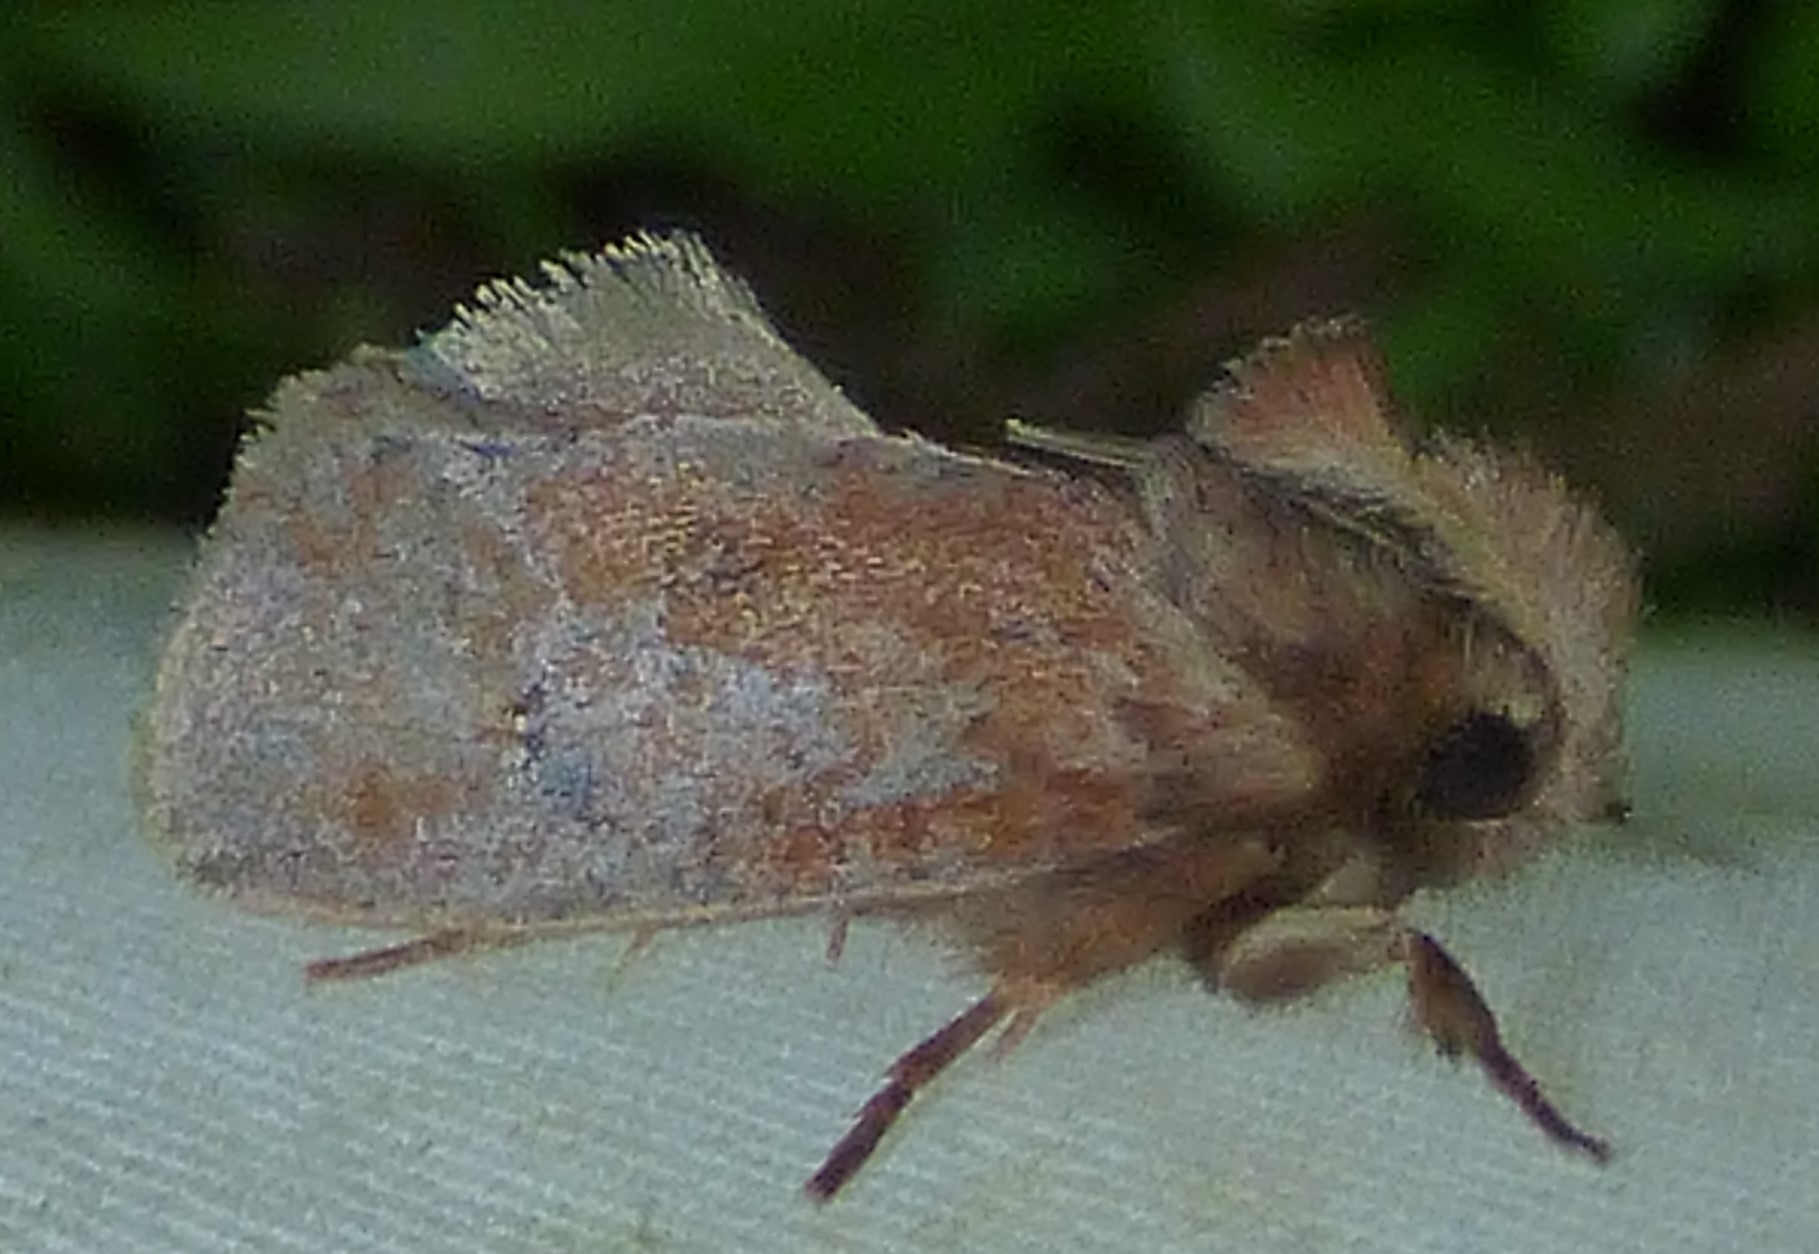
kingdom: Animalia
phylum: Arthropoda
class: Insecta
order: Lepidoptera
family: Tineidae
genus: Acrolophus
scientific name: Acrolophus plumifrontella
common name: Eastern grass tubeworm moth
